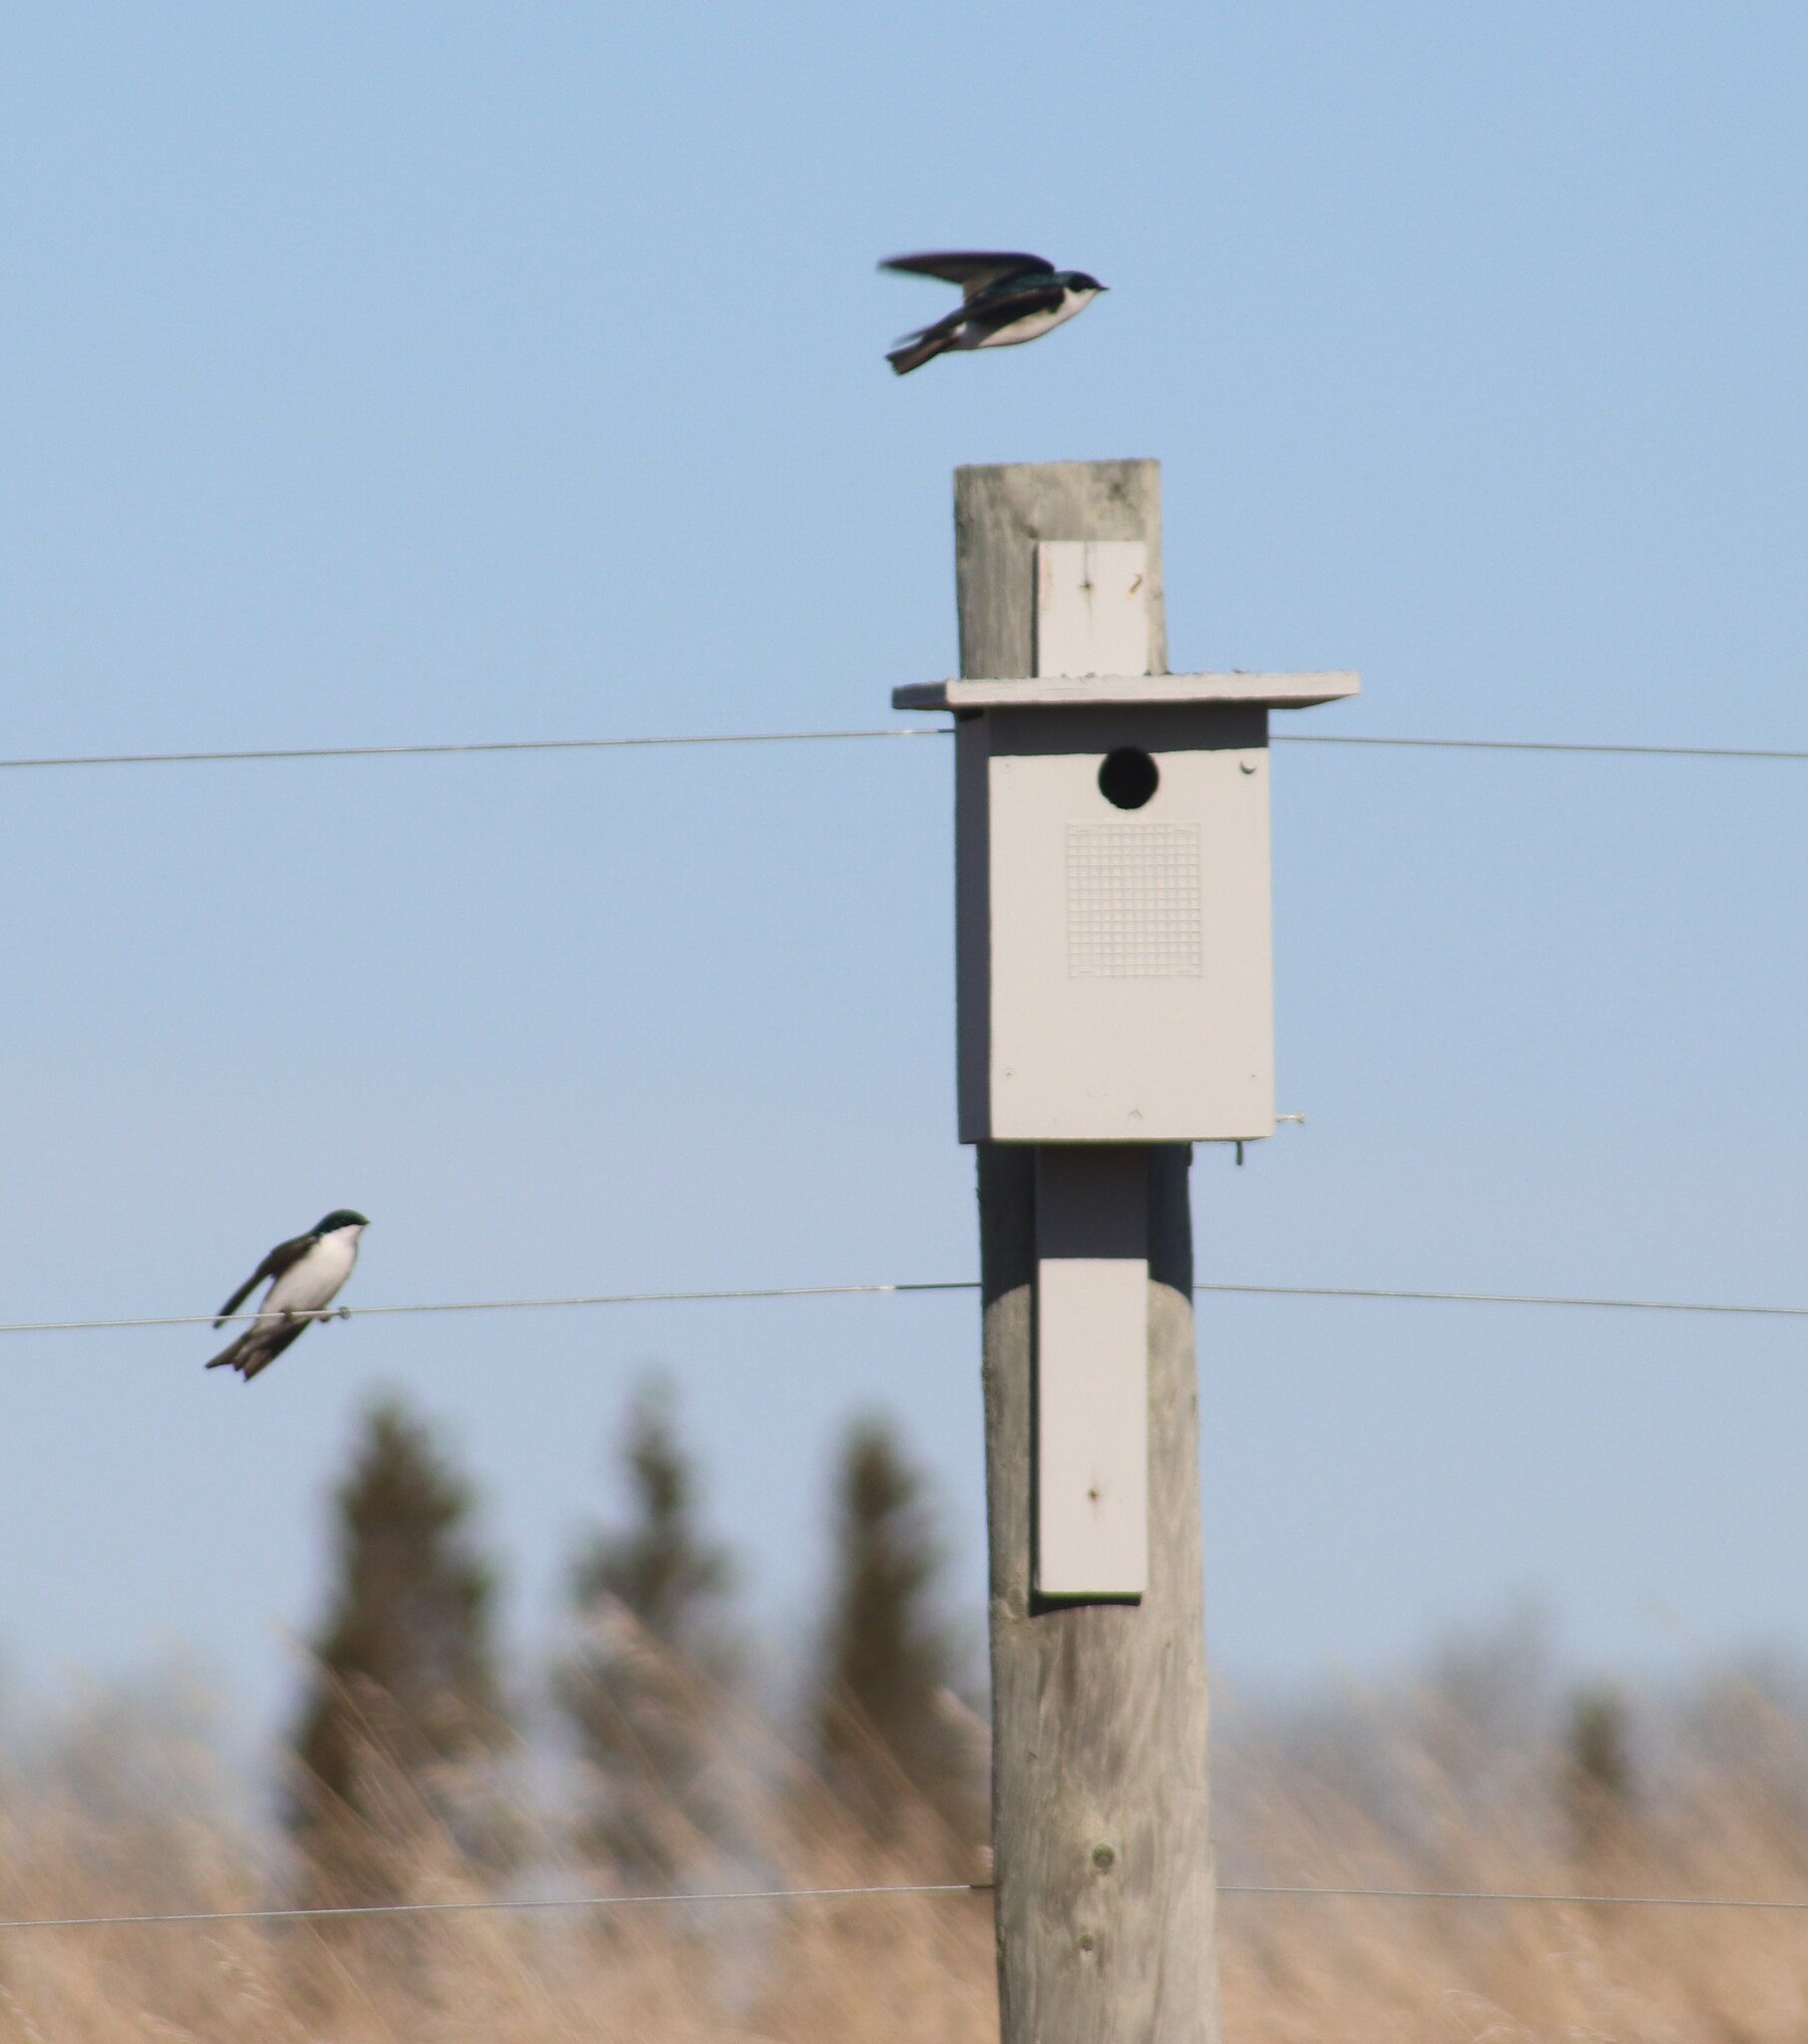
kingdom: Animalia
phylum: Chordata
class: Aves
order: Passeriformes
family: Hirundinidae
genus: Tachycineta
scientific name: Tachycineta bicolor
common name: Tree swallow
